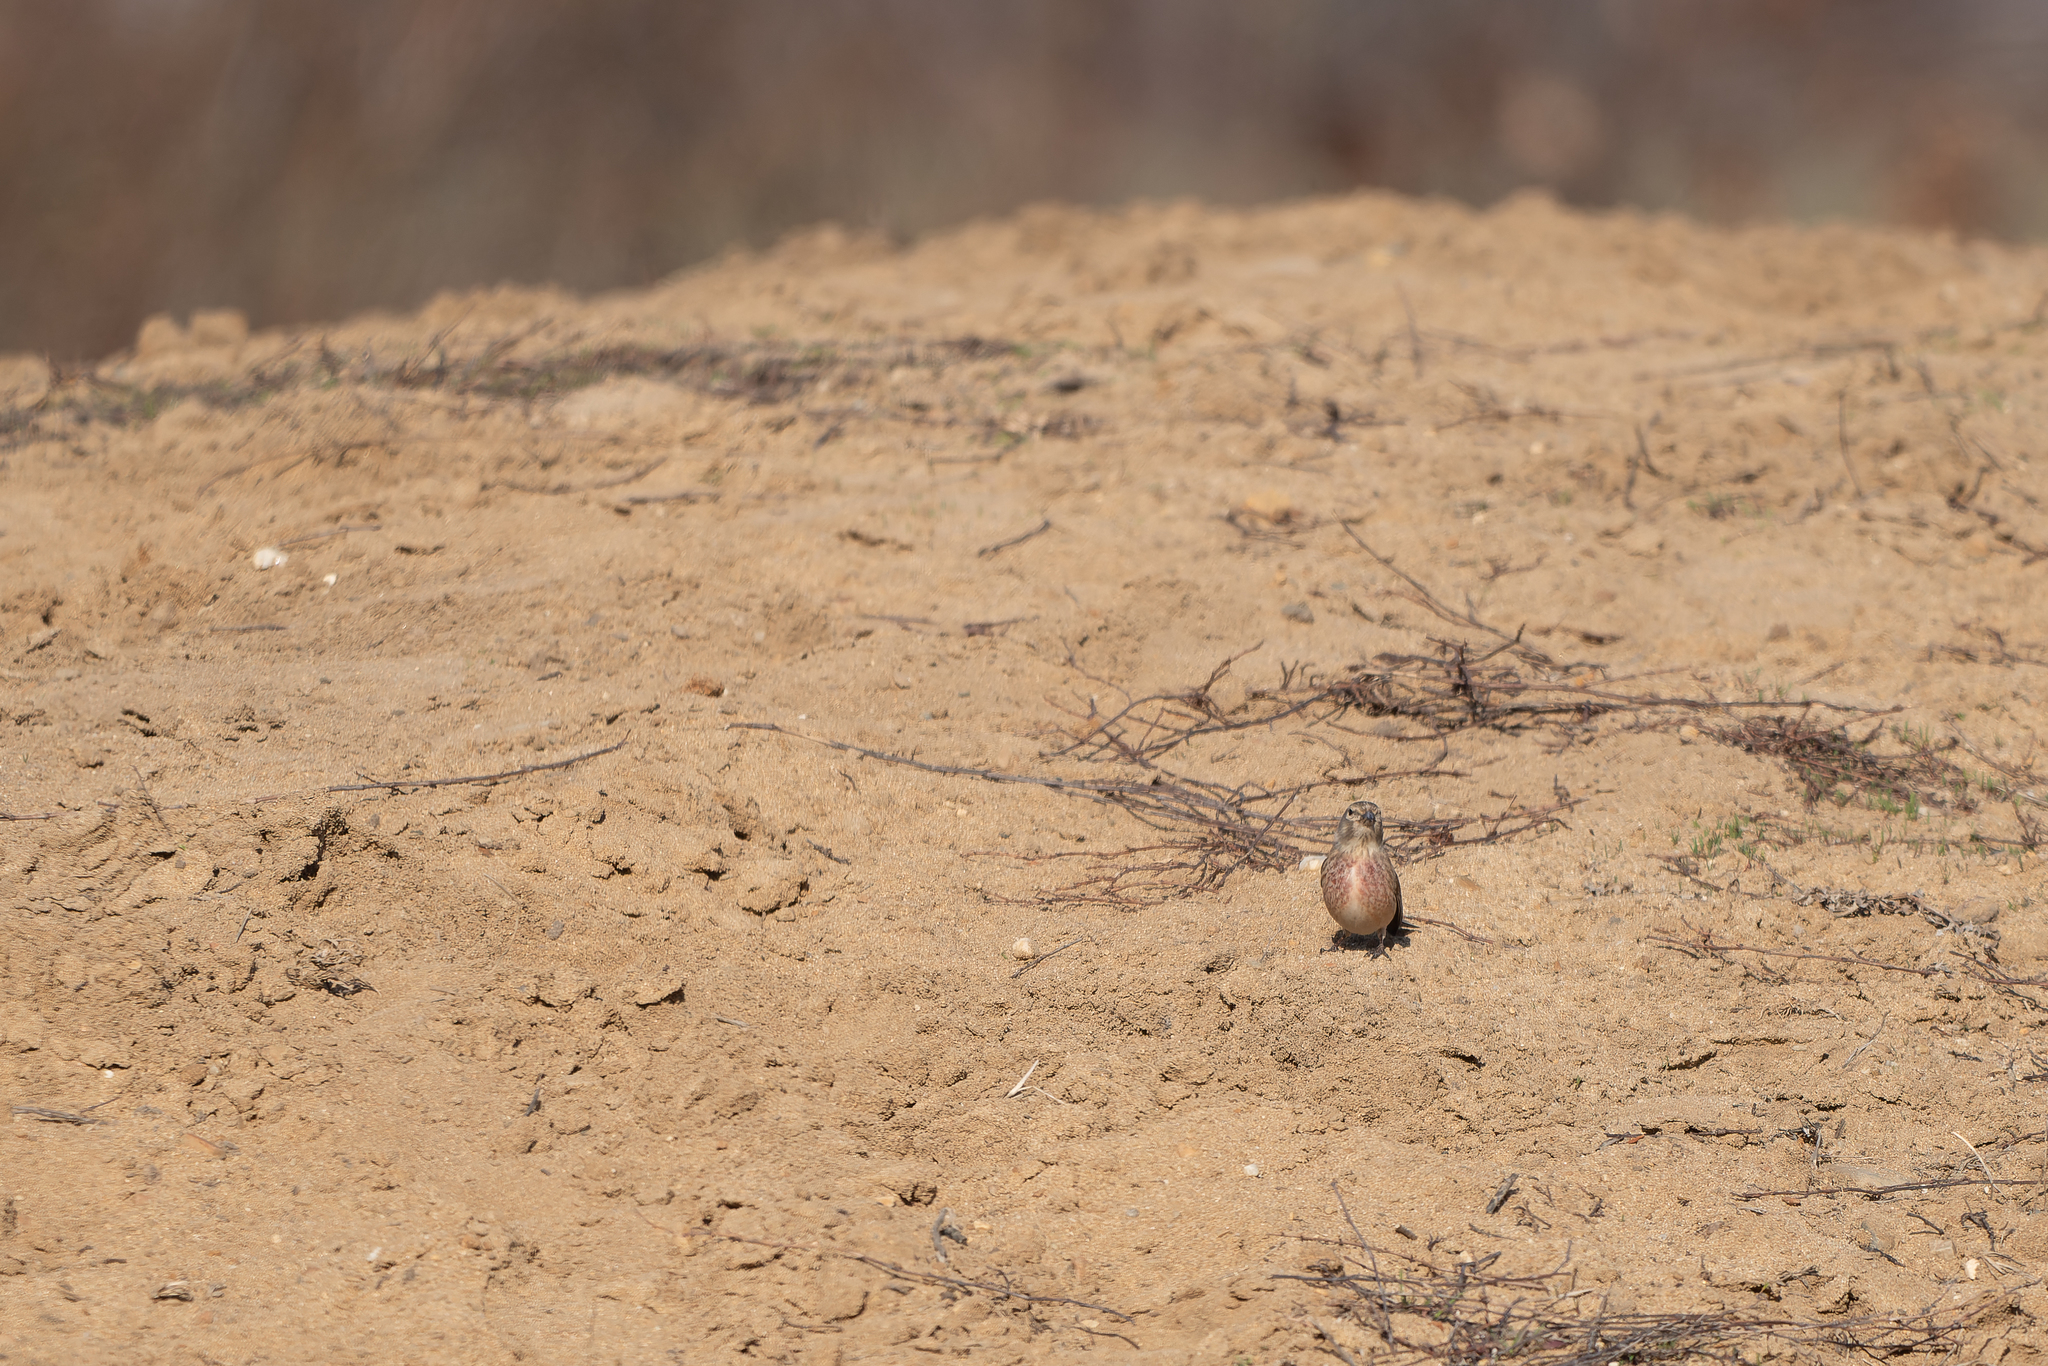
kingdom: Animalia
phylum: Chordata
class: Aves
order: Passeriformes
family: Fringillidae
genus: Linaria
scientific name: Linaria cannabina
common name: Common linnet
